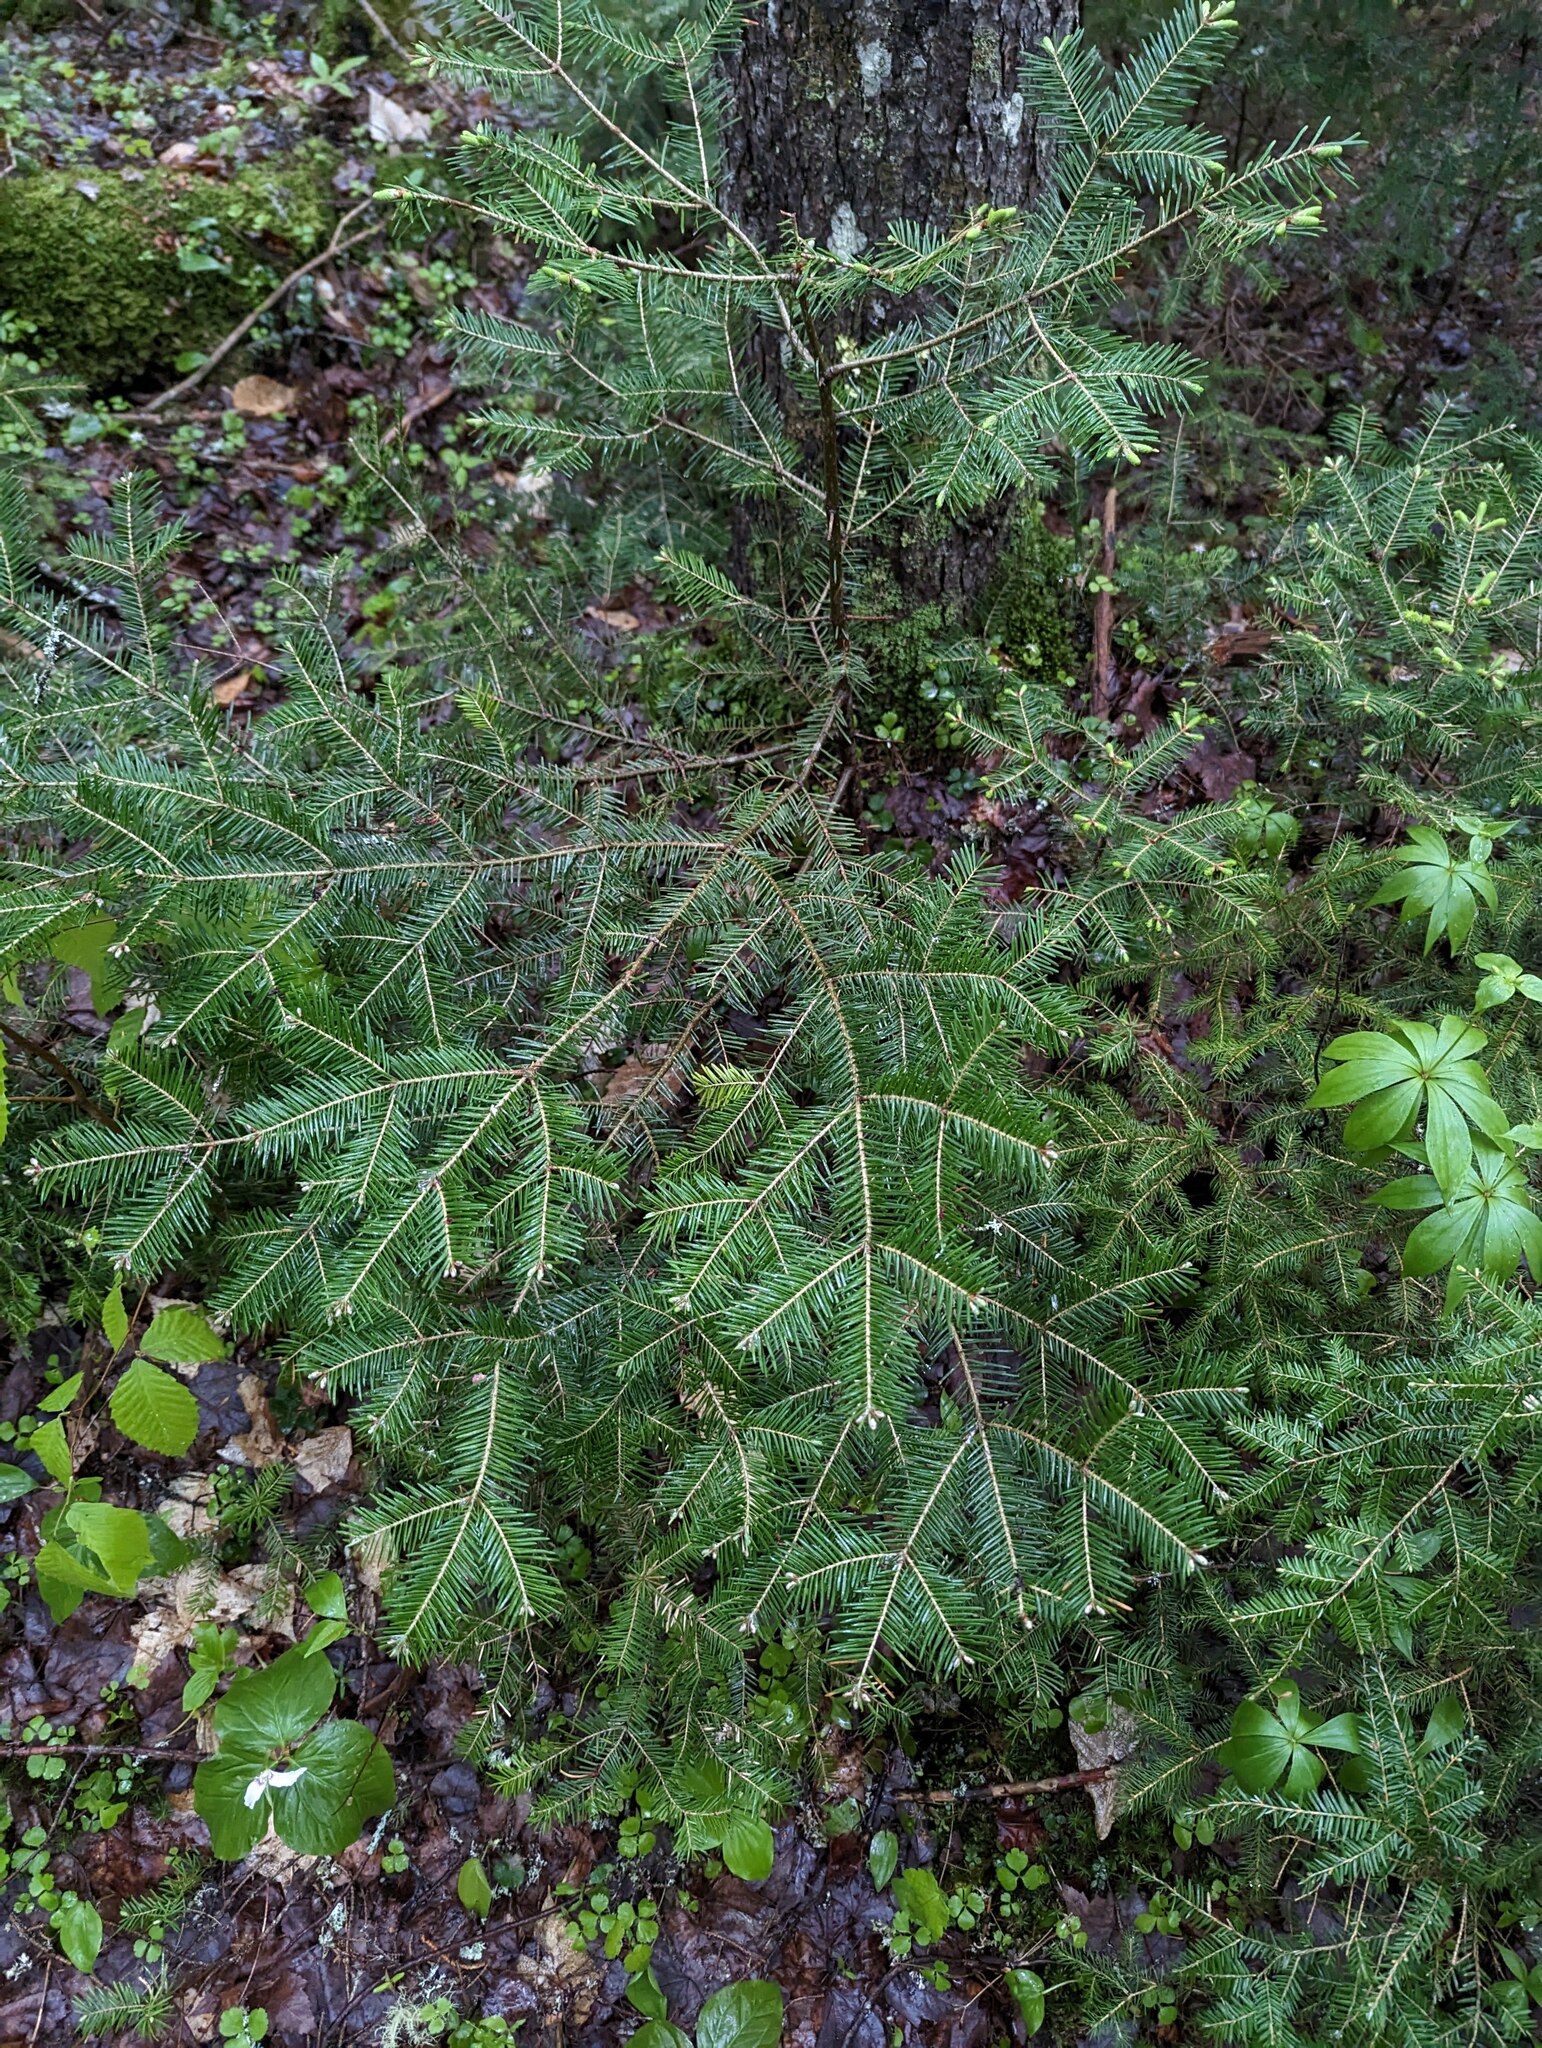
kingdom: Plantae
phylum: Tracheophyta
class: Pinopsida
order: Pinales
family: Pinaceae
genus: Abies
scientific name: Abies balsamea
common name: Balsam fir
